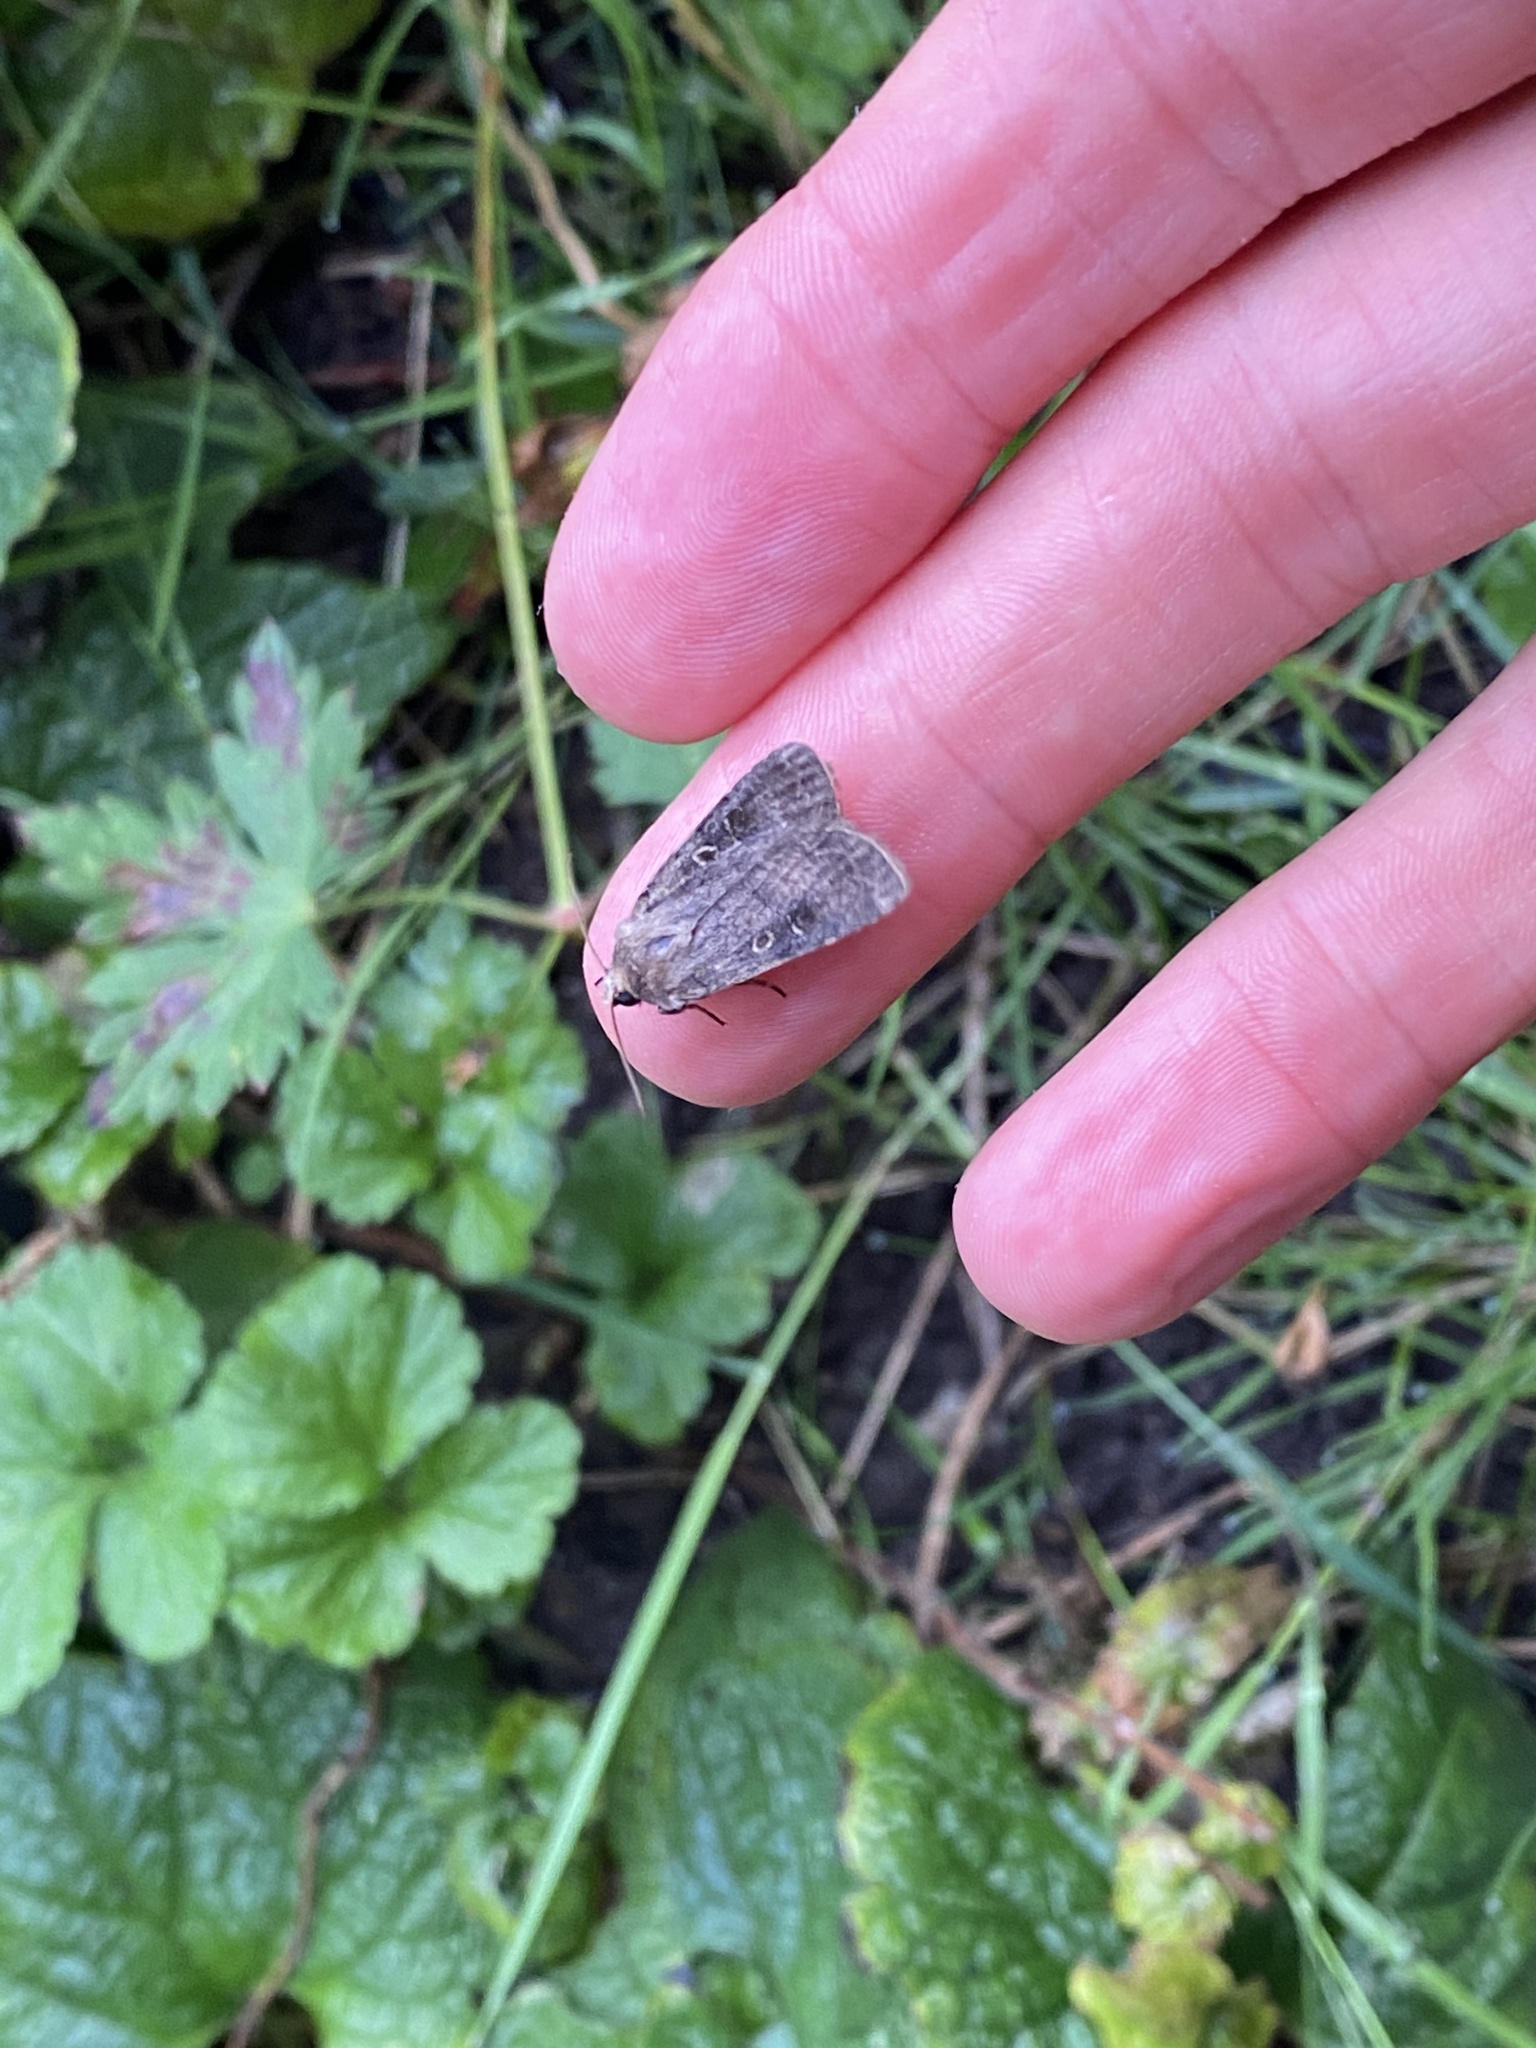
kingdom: Animalia
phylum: Arthropoda
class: Insecta
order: Lepidoptera
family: Noctuidae
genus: Xestia
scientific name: Xestia xanthographa
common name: Square-spot rustic
